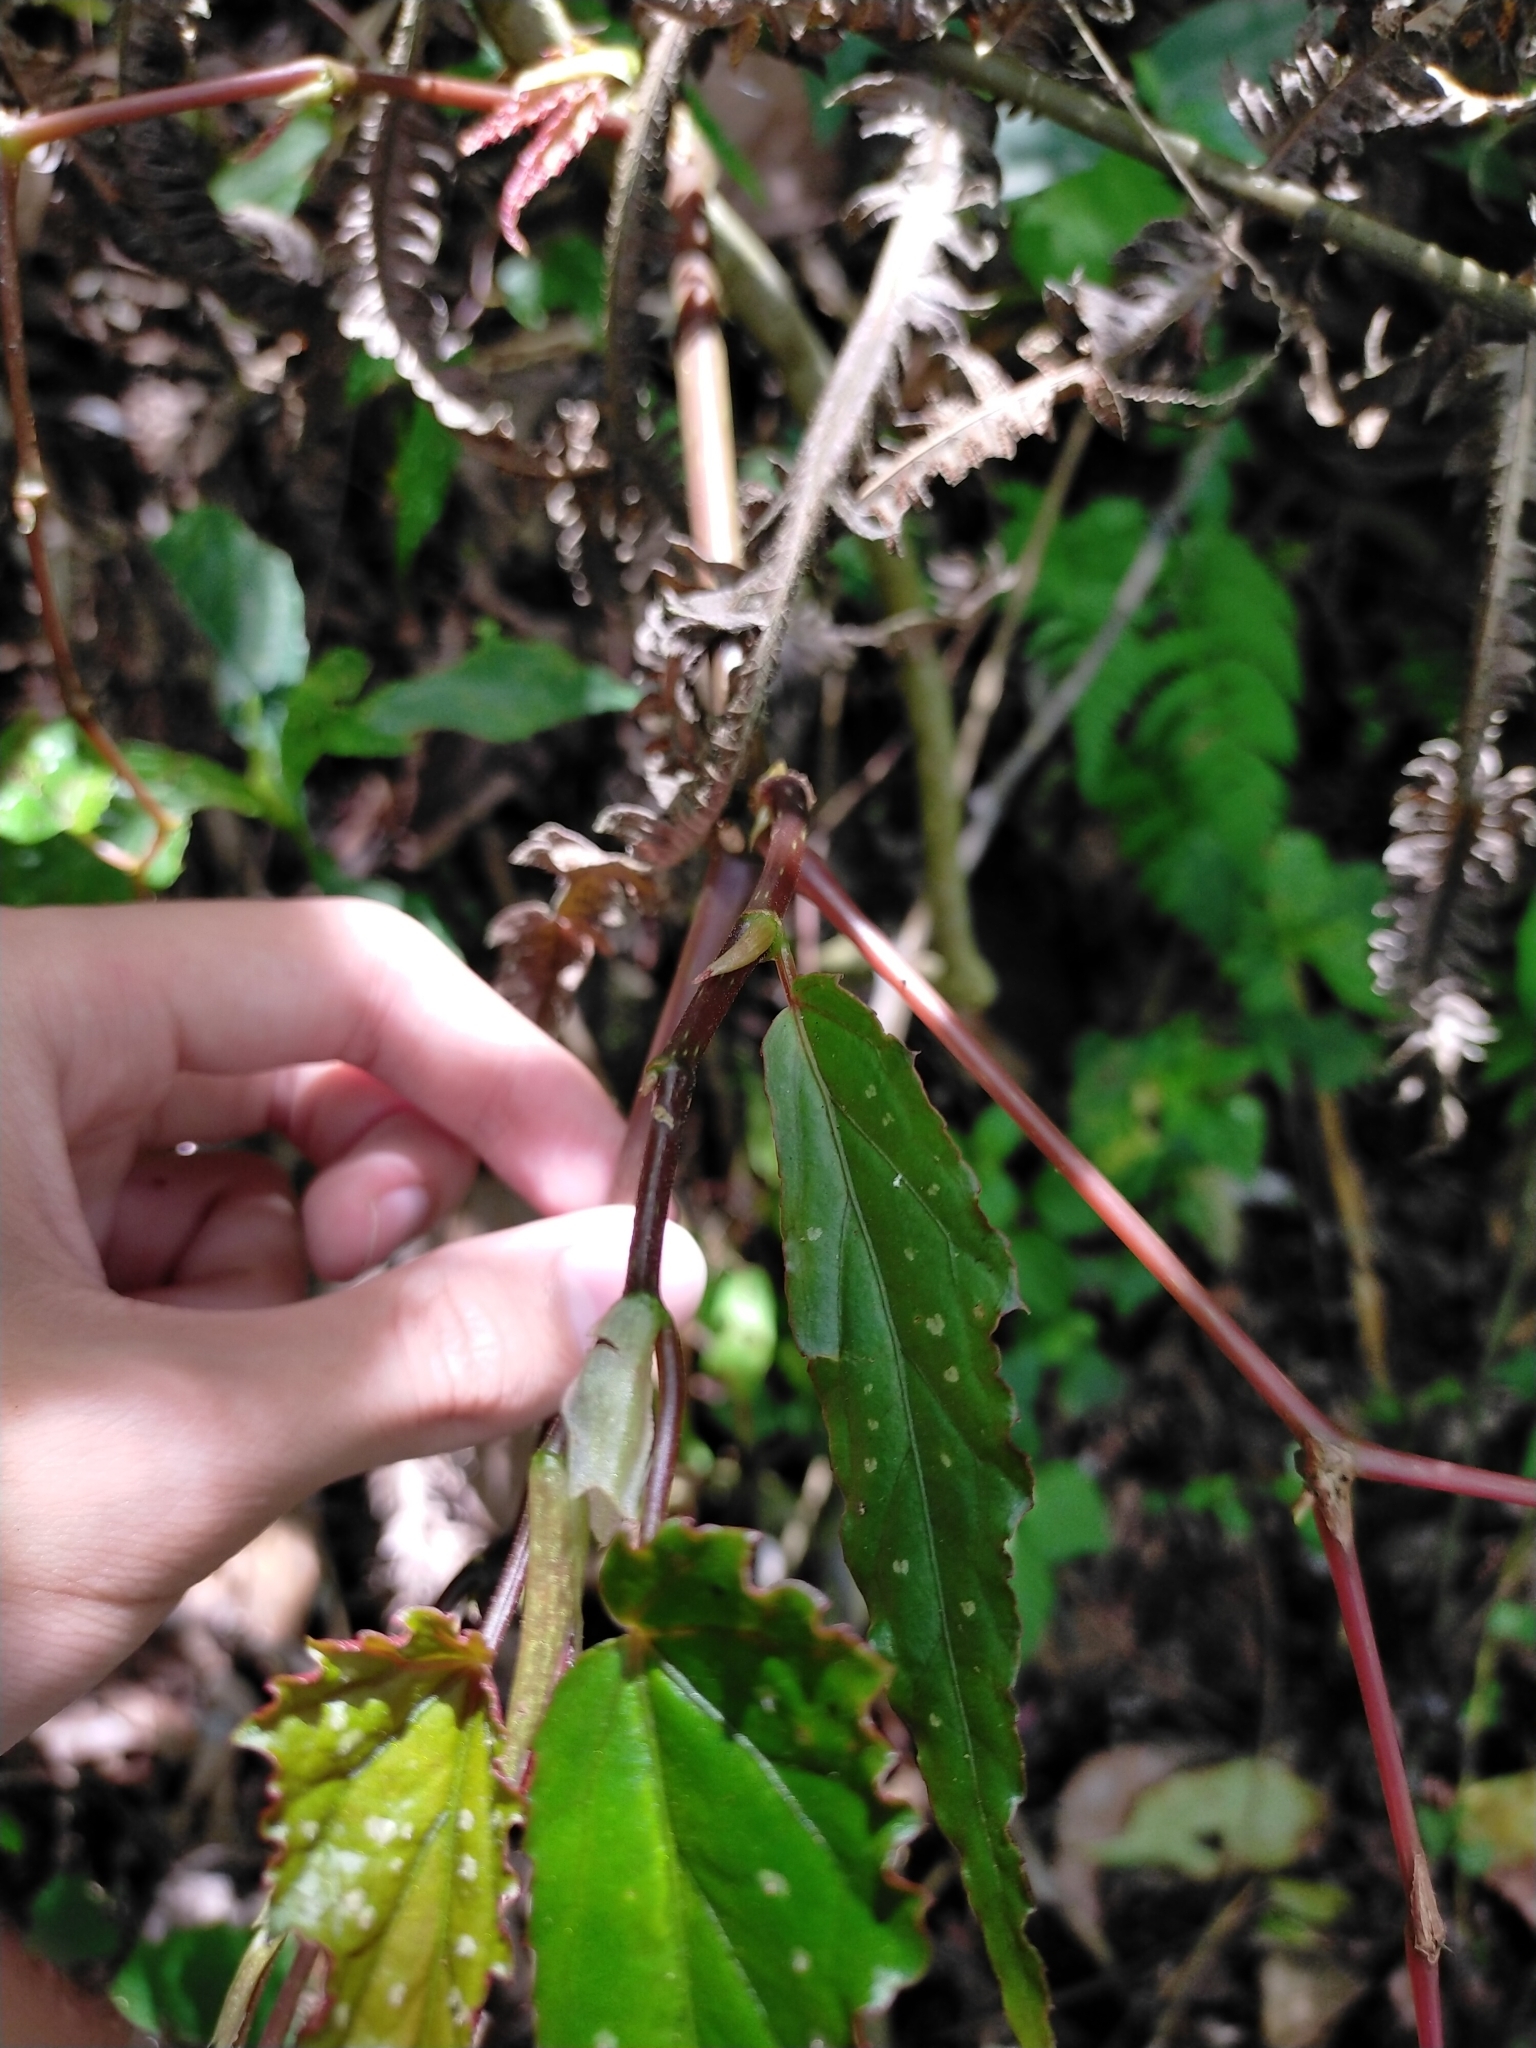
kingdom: Plantae
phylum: Tracheophyta
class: Magnoliopsida
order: Cucurbitales
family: Begoniaceae
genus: Begonia
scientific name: Begonia taiwaniana
